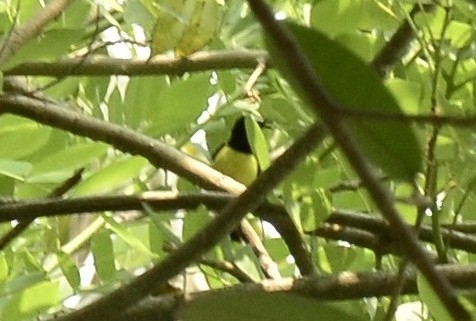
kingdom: Animalia
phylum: Chordata
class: Aves
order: Passeriformes
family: Nectariniidae
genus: Leptocoma
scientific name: Leptocoma zeylonica
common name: Purple-rumped sunbird
